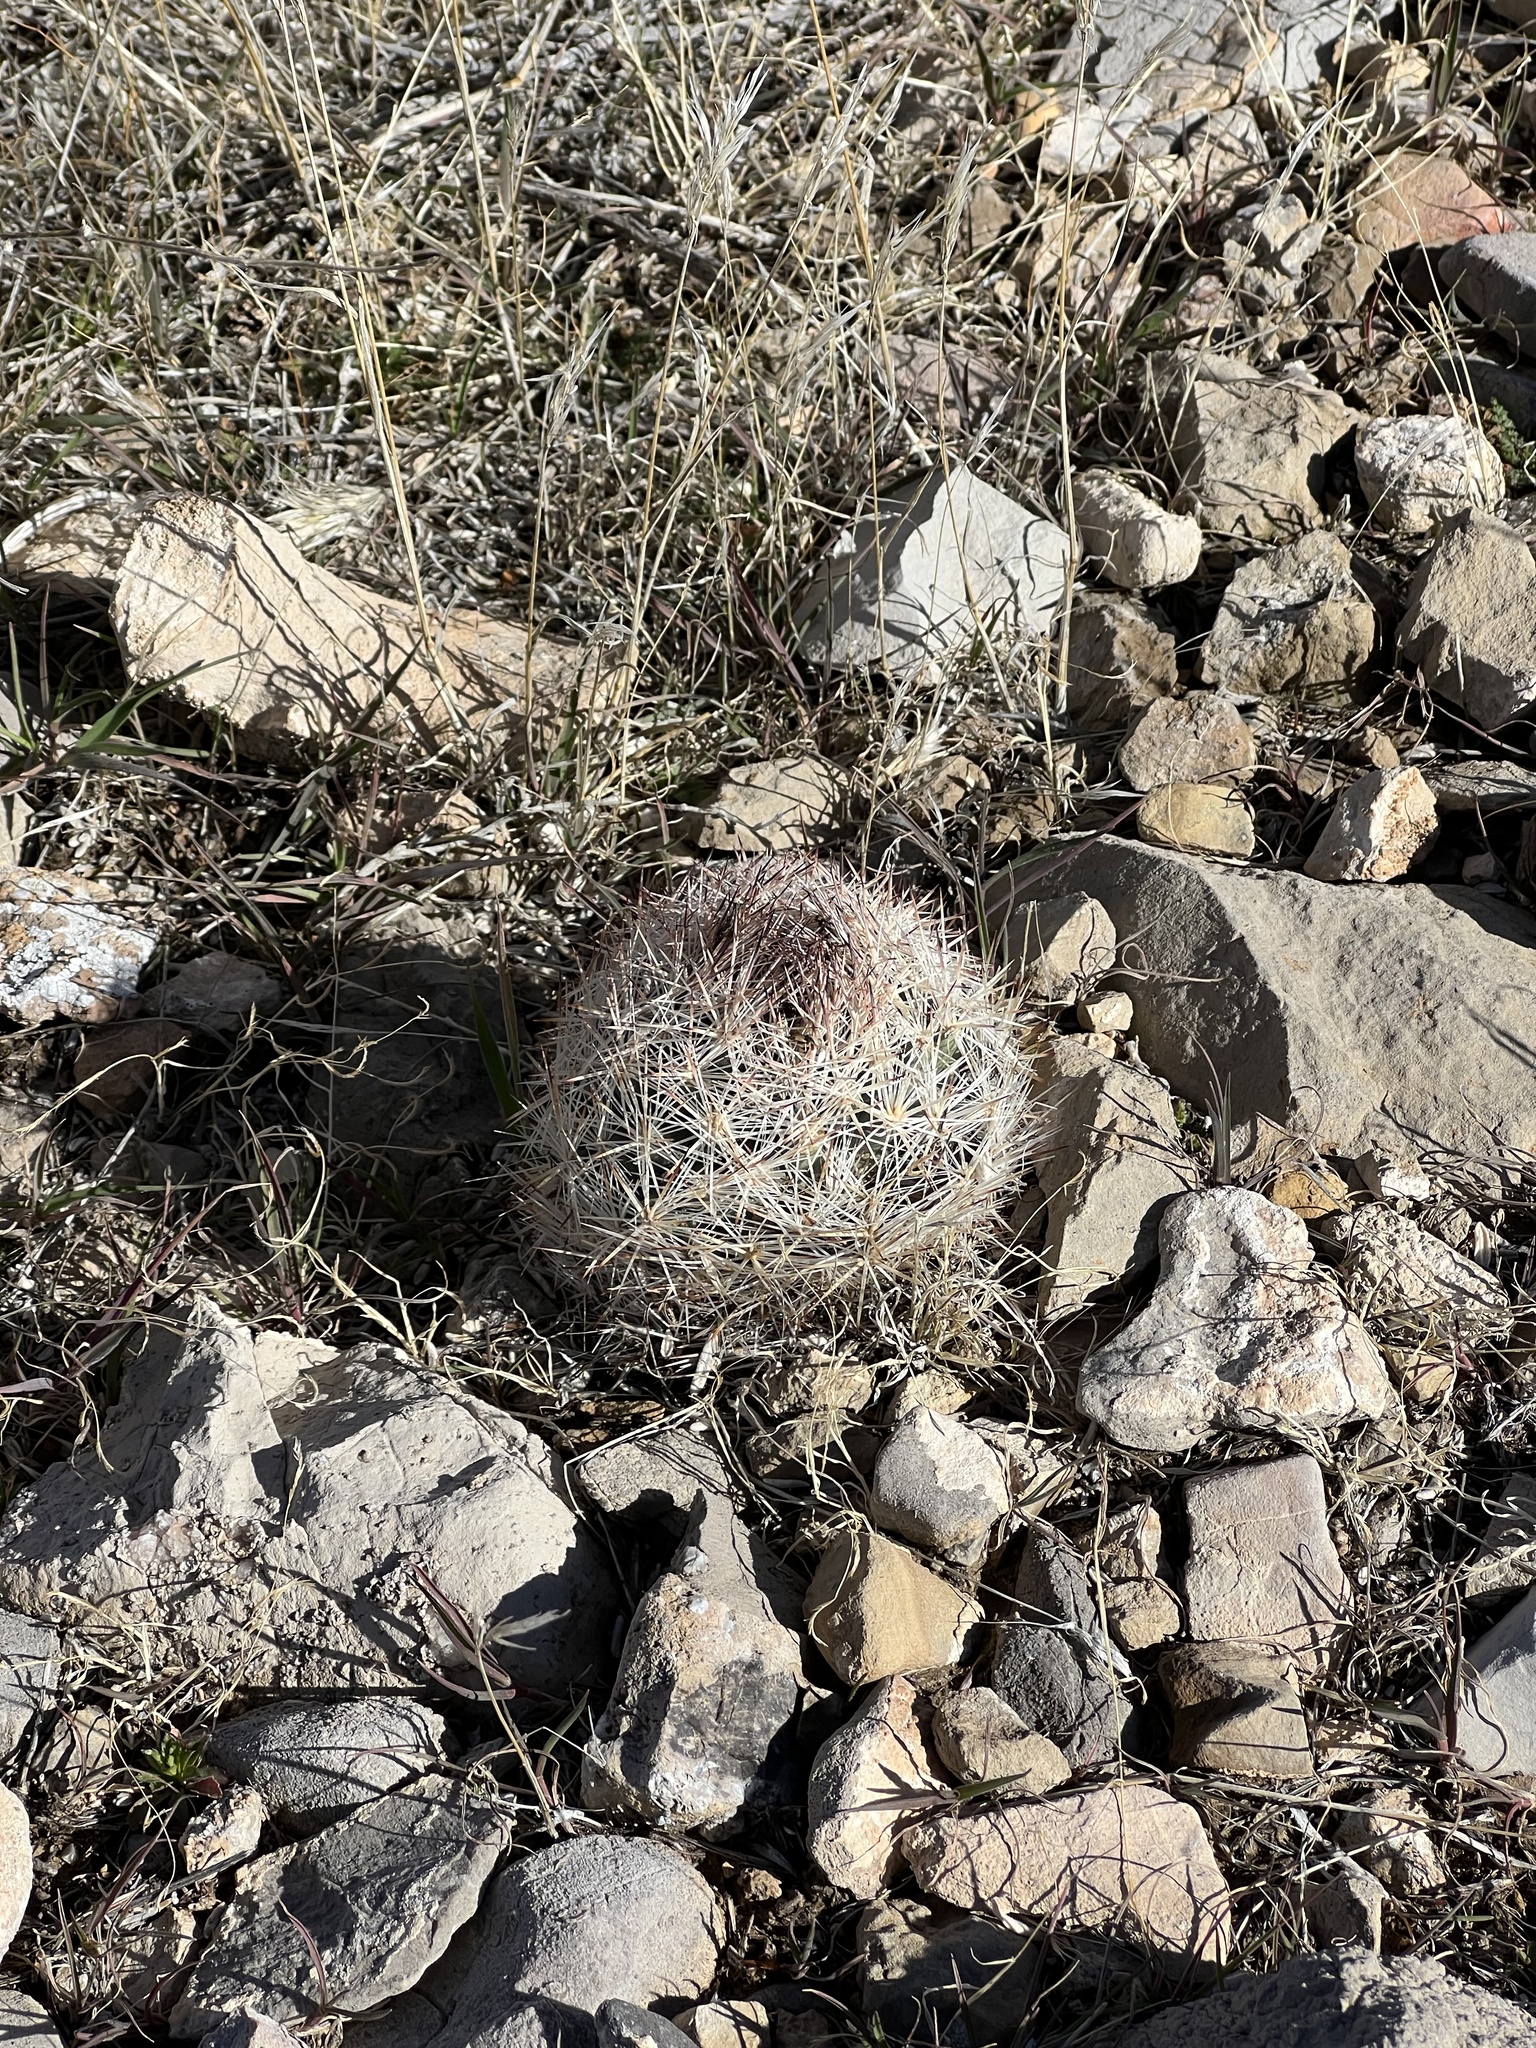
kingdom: Plantae
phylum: Tracheophyta
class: Magnoliopsida
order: Caryophyllales
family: Cactaceae
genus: Pelecyphora
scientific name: Pelecyphora dasyacantha
